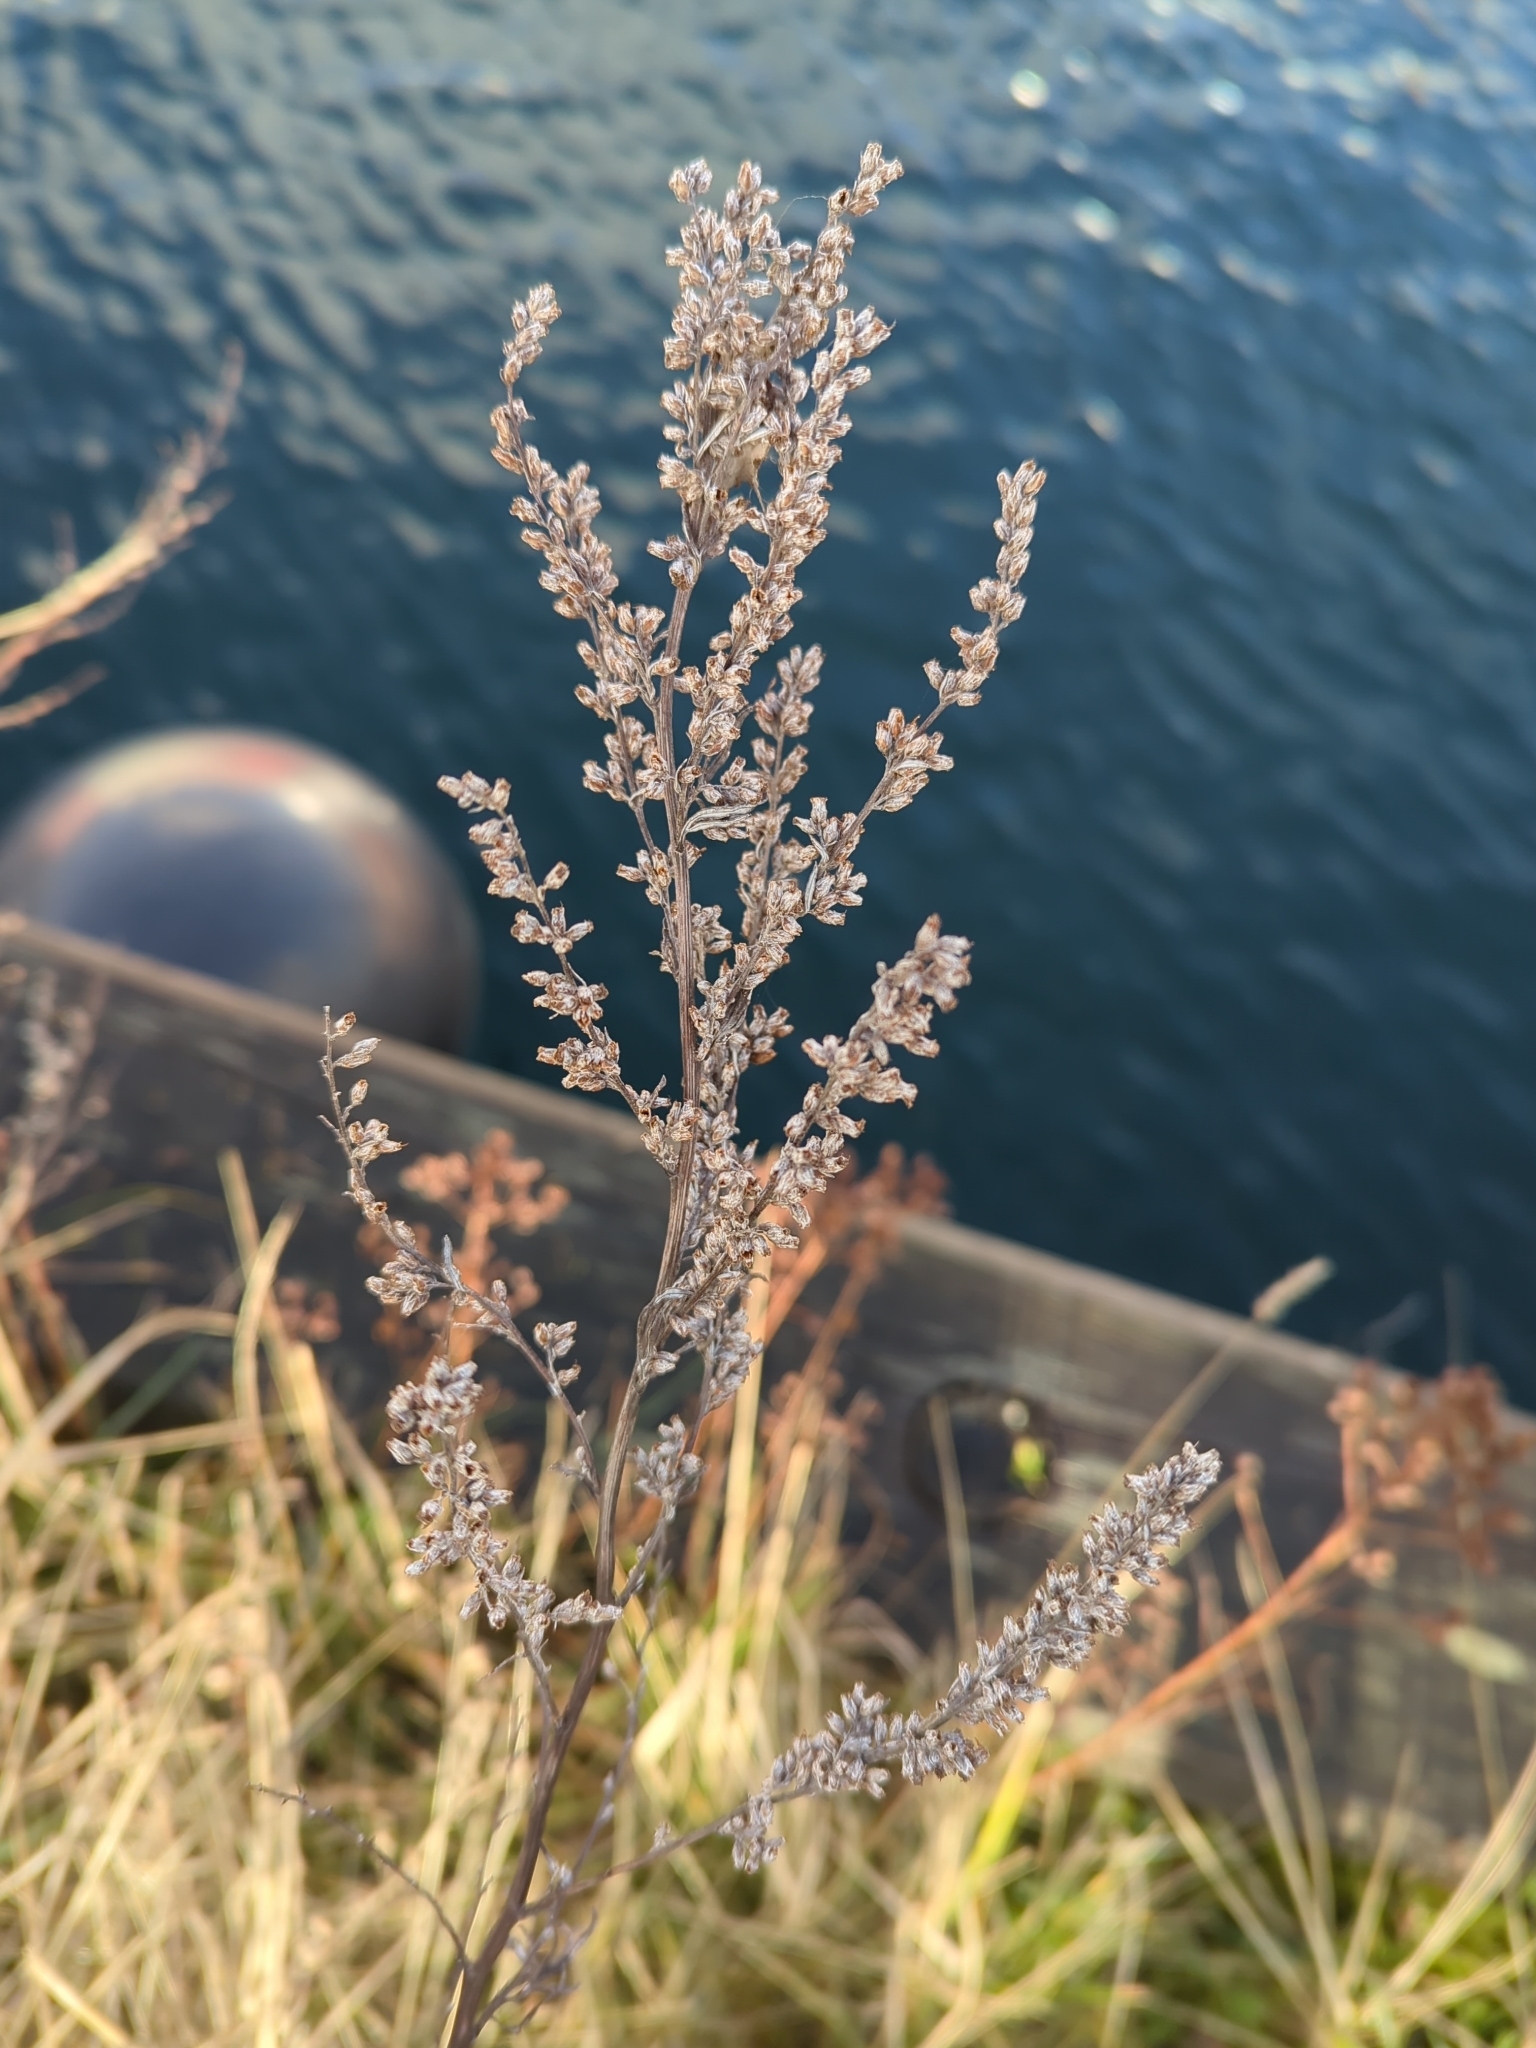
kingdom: Plantae
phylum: Tracheophyta
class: Magnoliopsida
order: Asterales
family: Asteraceae
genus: Artemisia
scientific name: Artemisia vulgaris
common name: Mugwort
